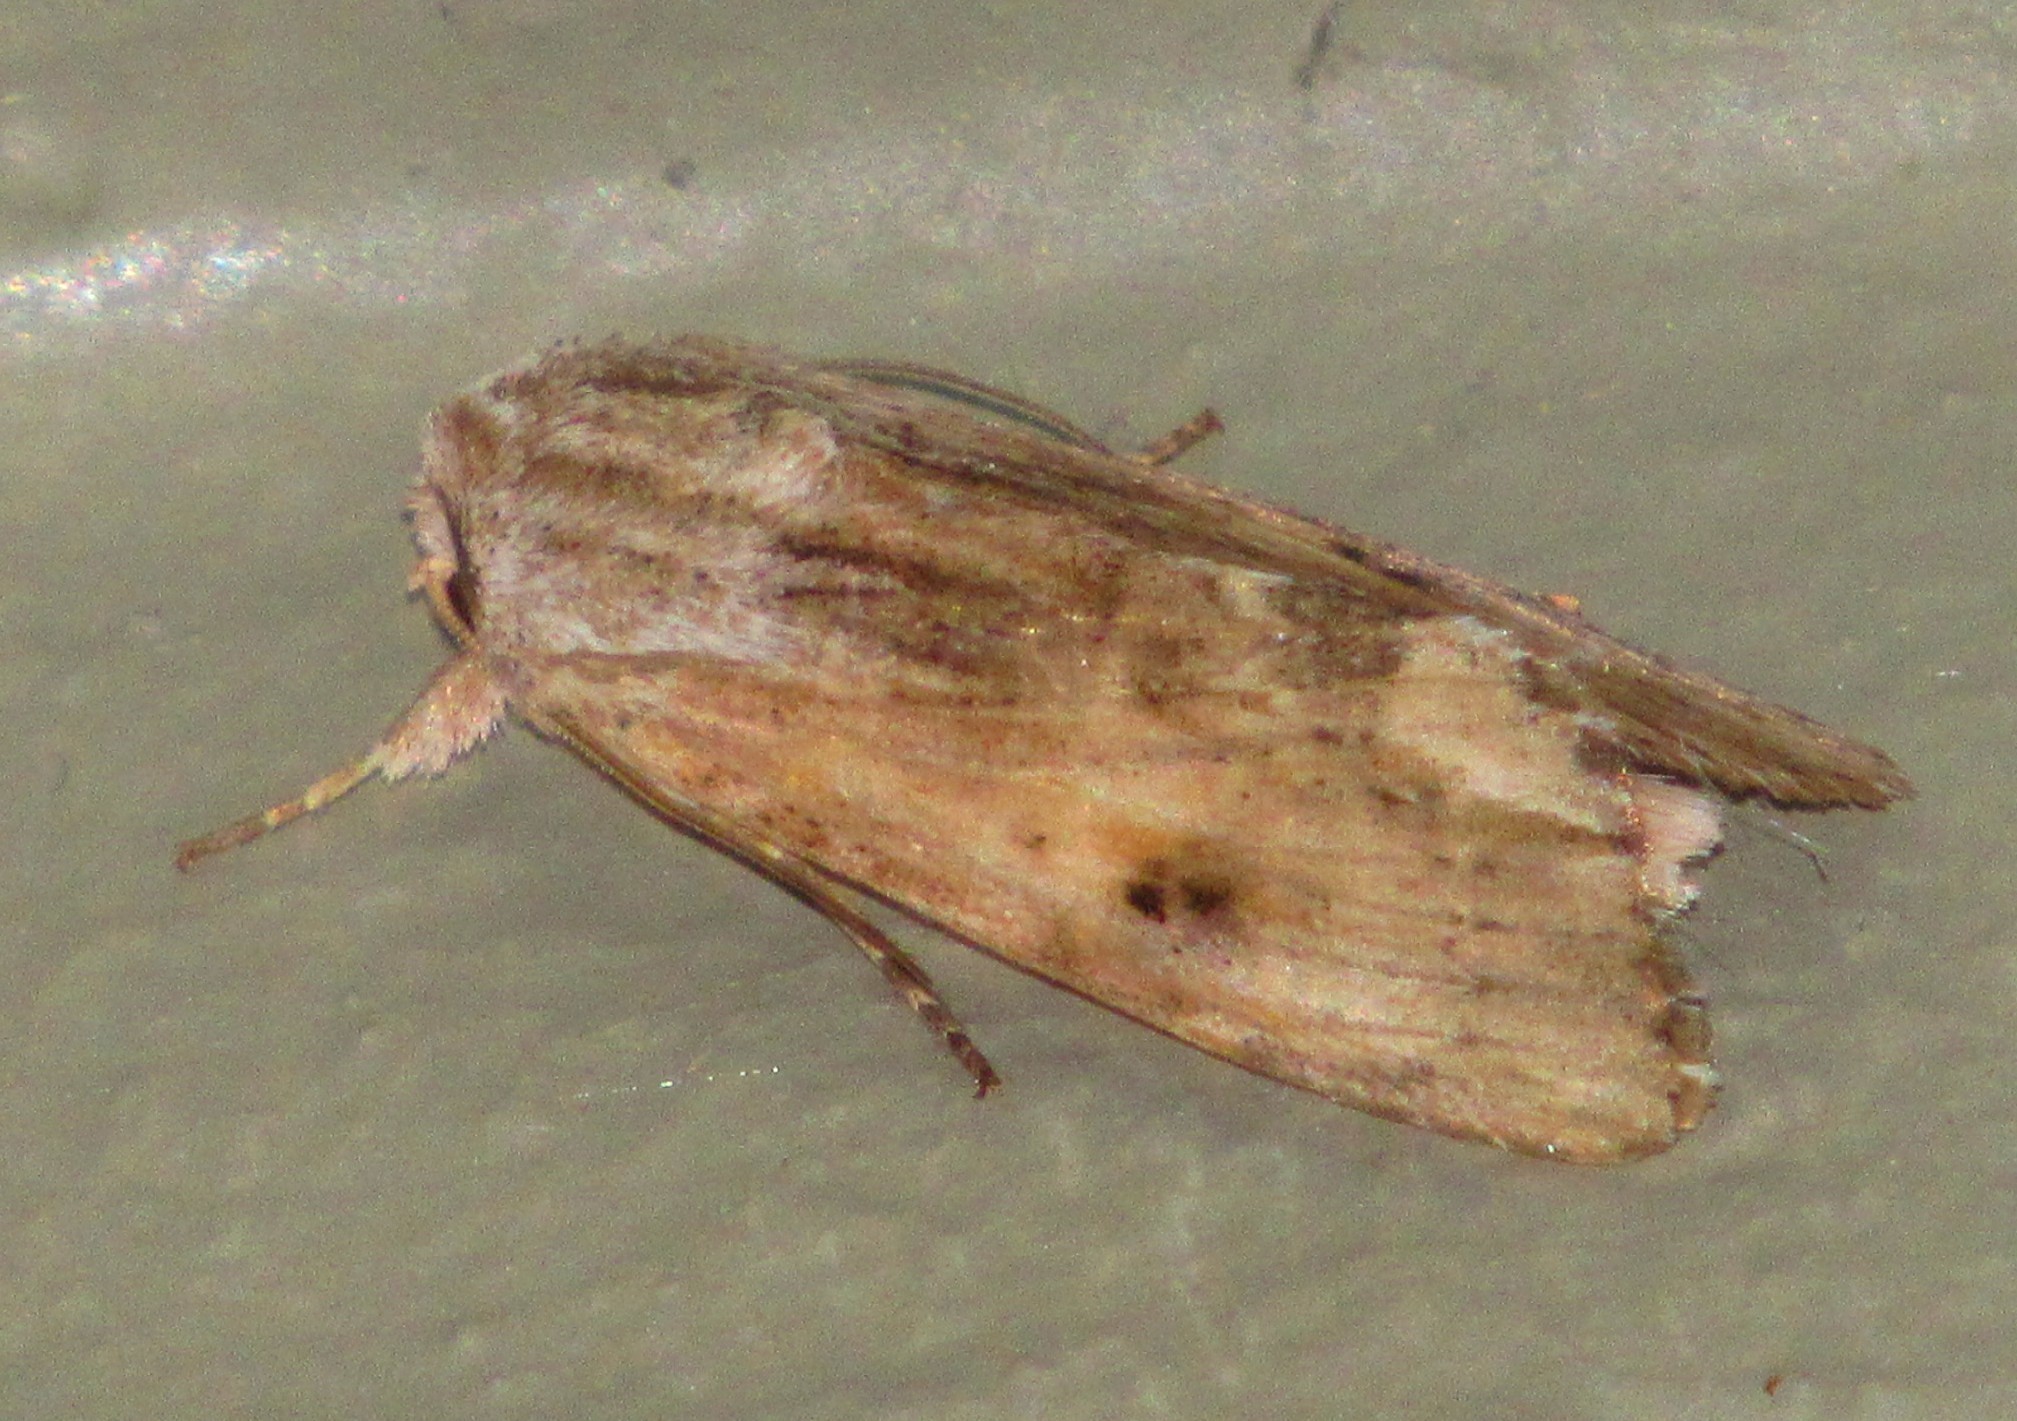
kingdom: Animalia
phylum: Arthropoda
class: Insecta
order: Lepidoptera
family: Noctuidae
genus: Spodoptera
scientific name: Spodoptera eridania
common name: Southern army worm
